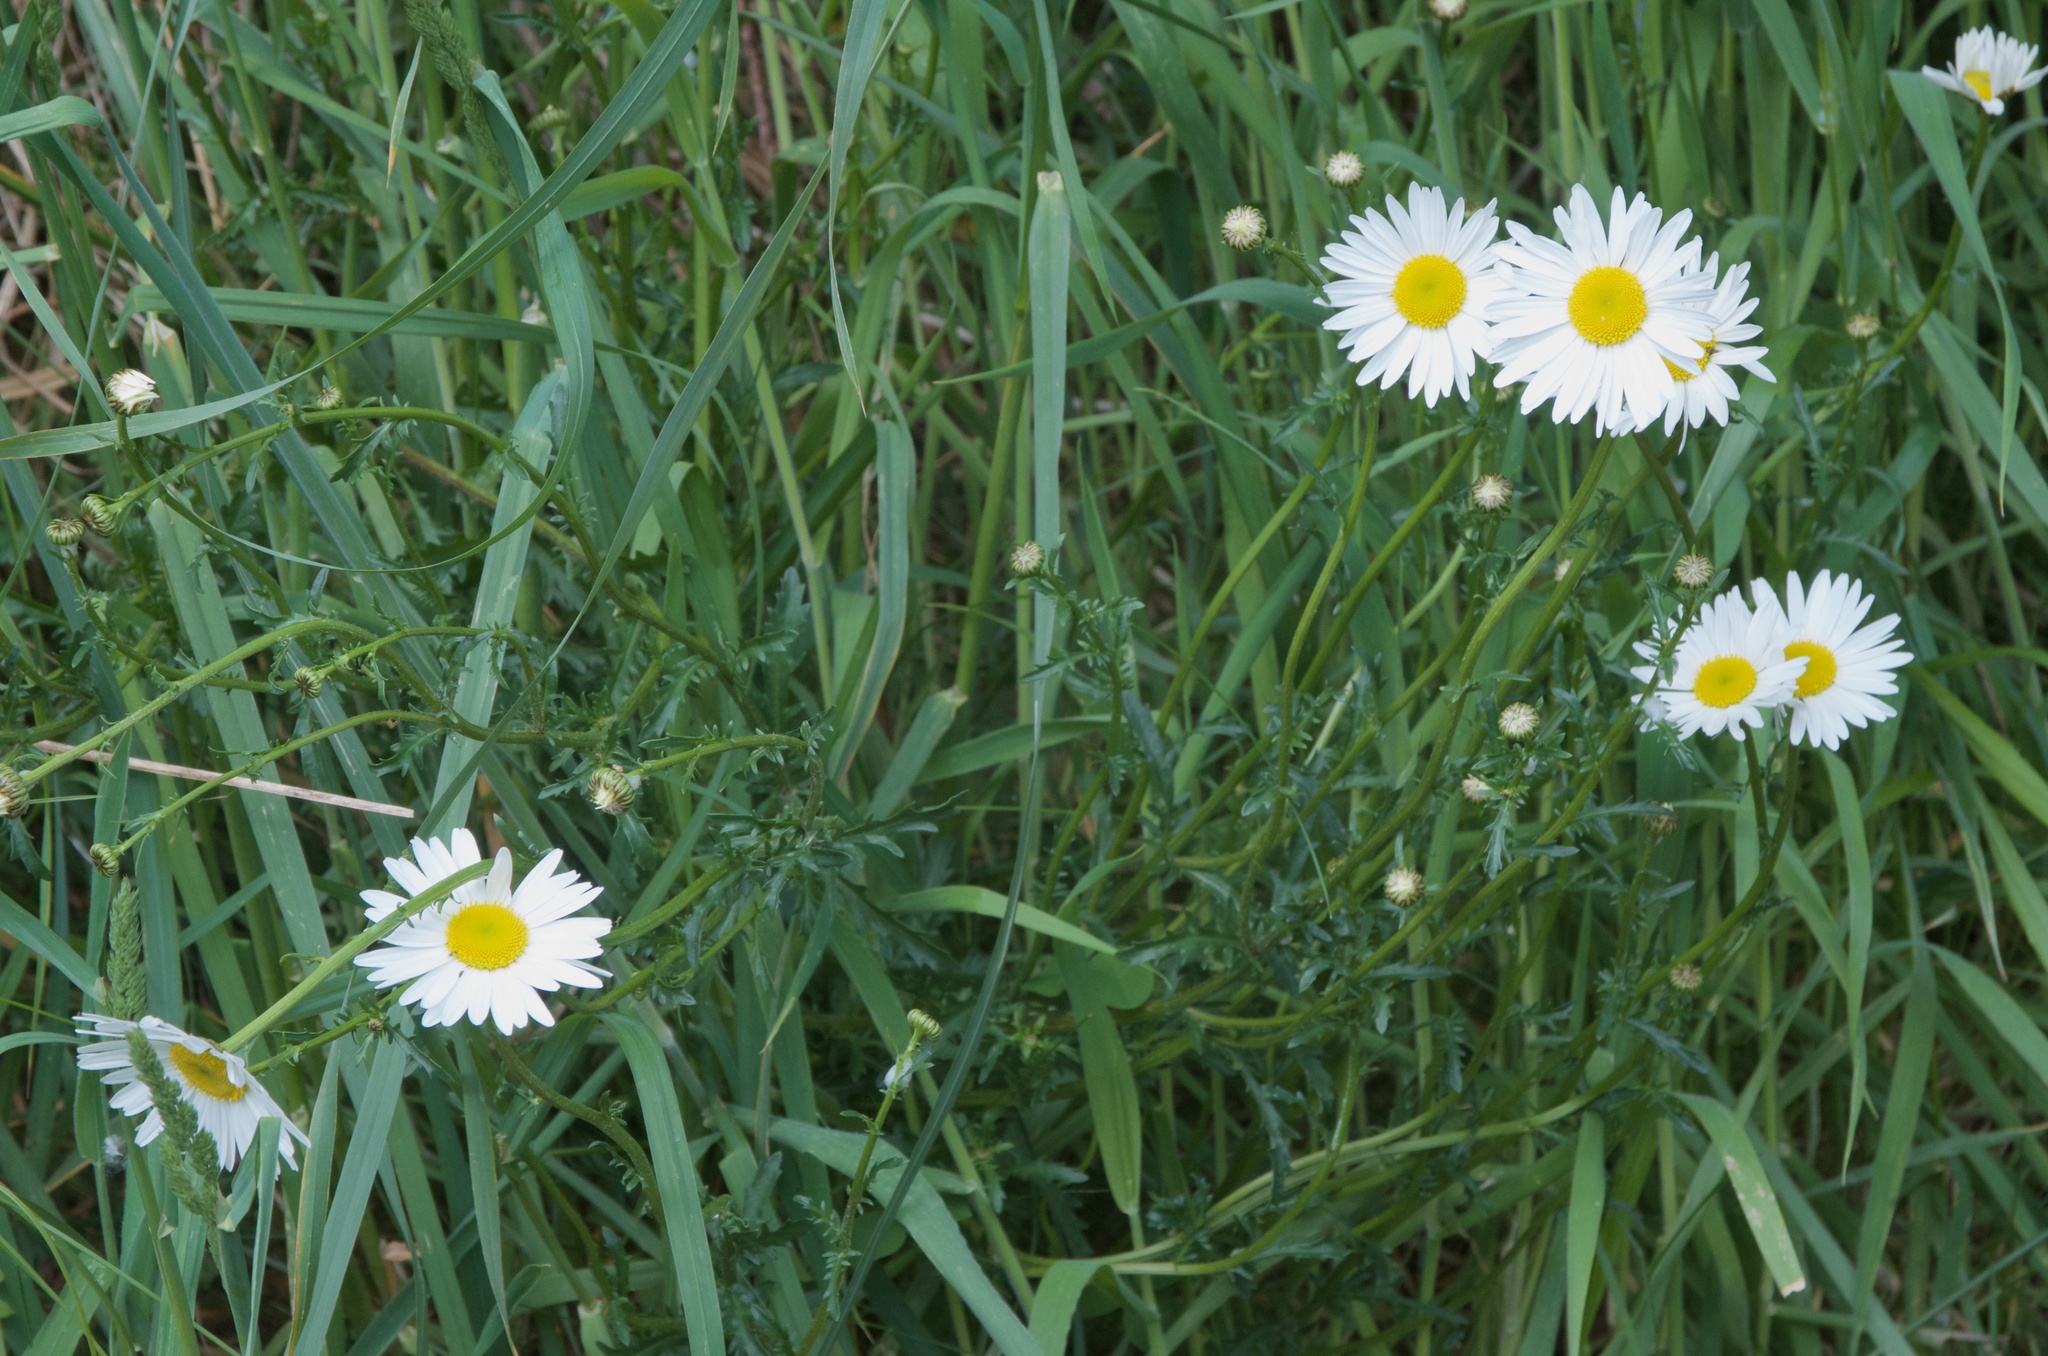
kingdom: Plantae
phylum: Tracheophyta
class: Magnoliopsida
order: Asterales
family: Asteraceae
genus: Leucanthemum
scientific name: Leucanthemum vulgare
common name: Oxeye daisy
